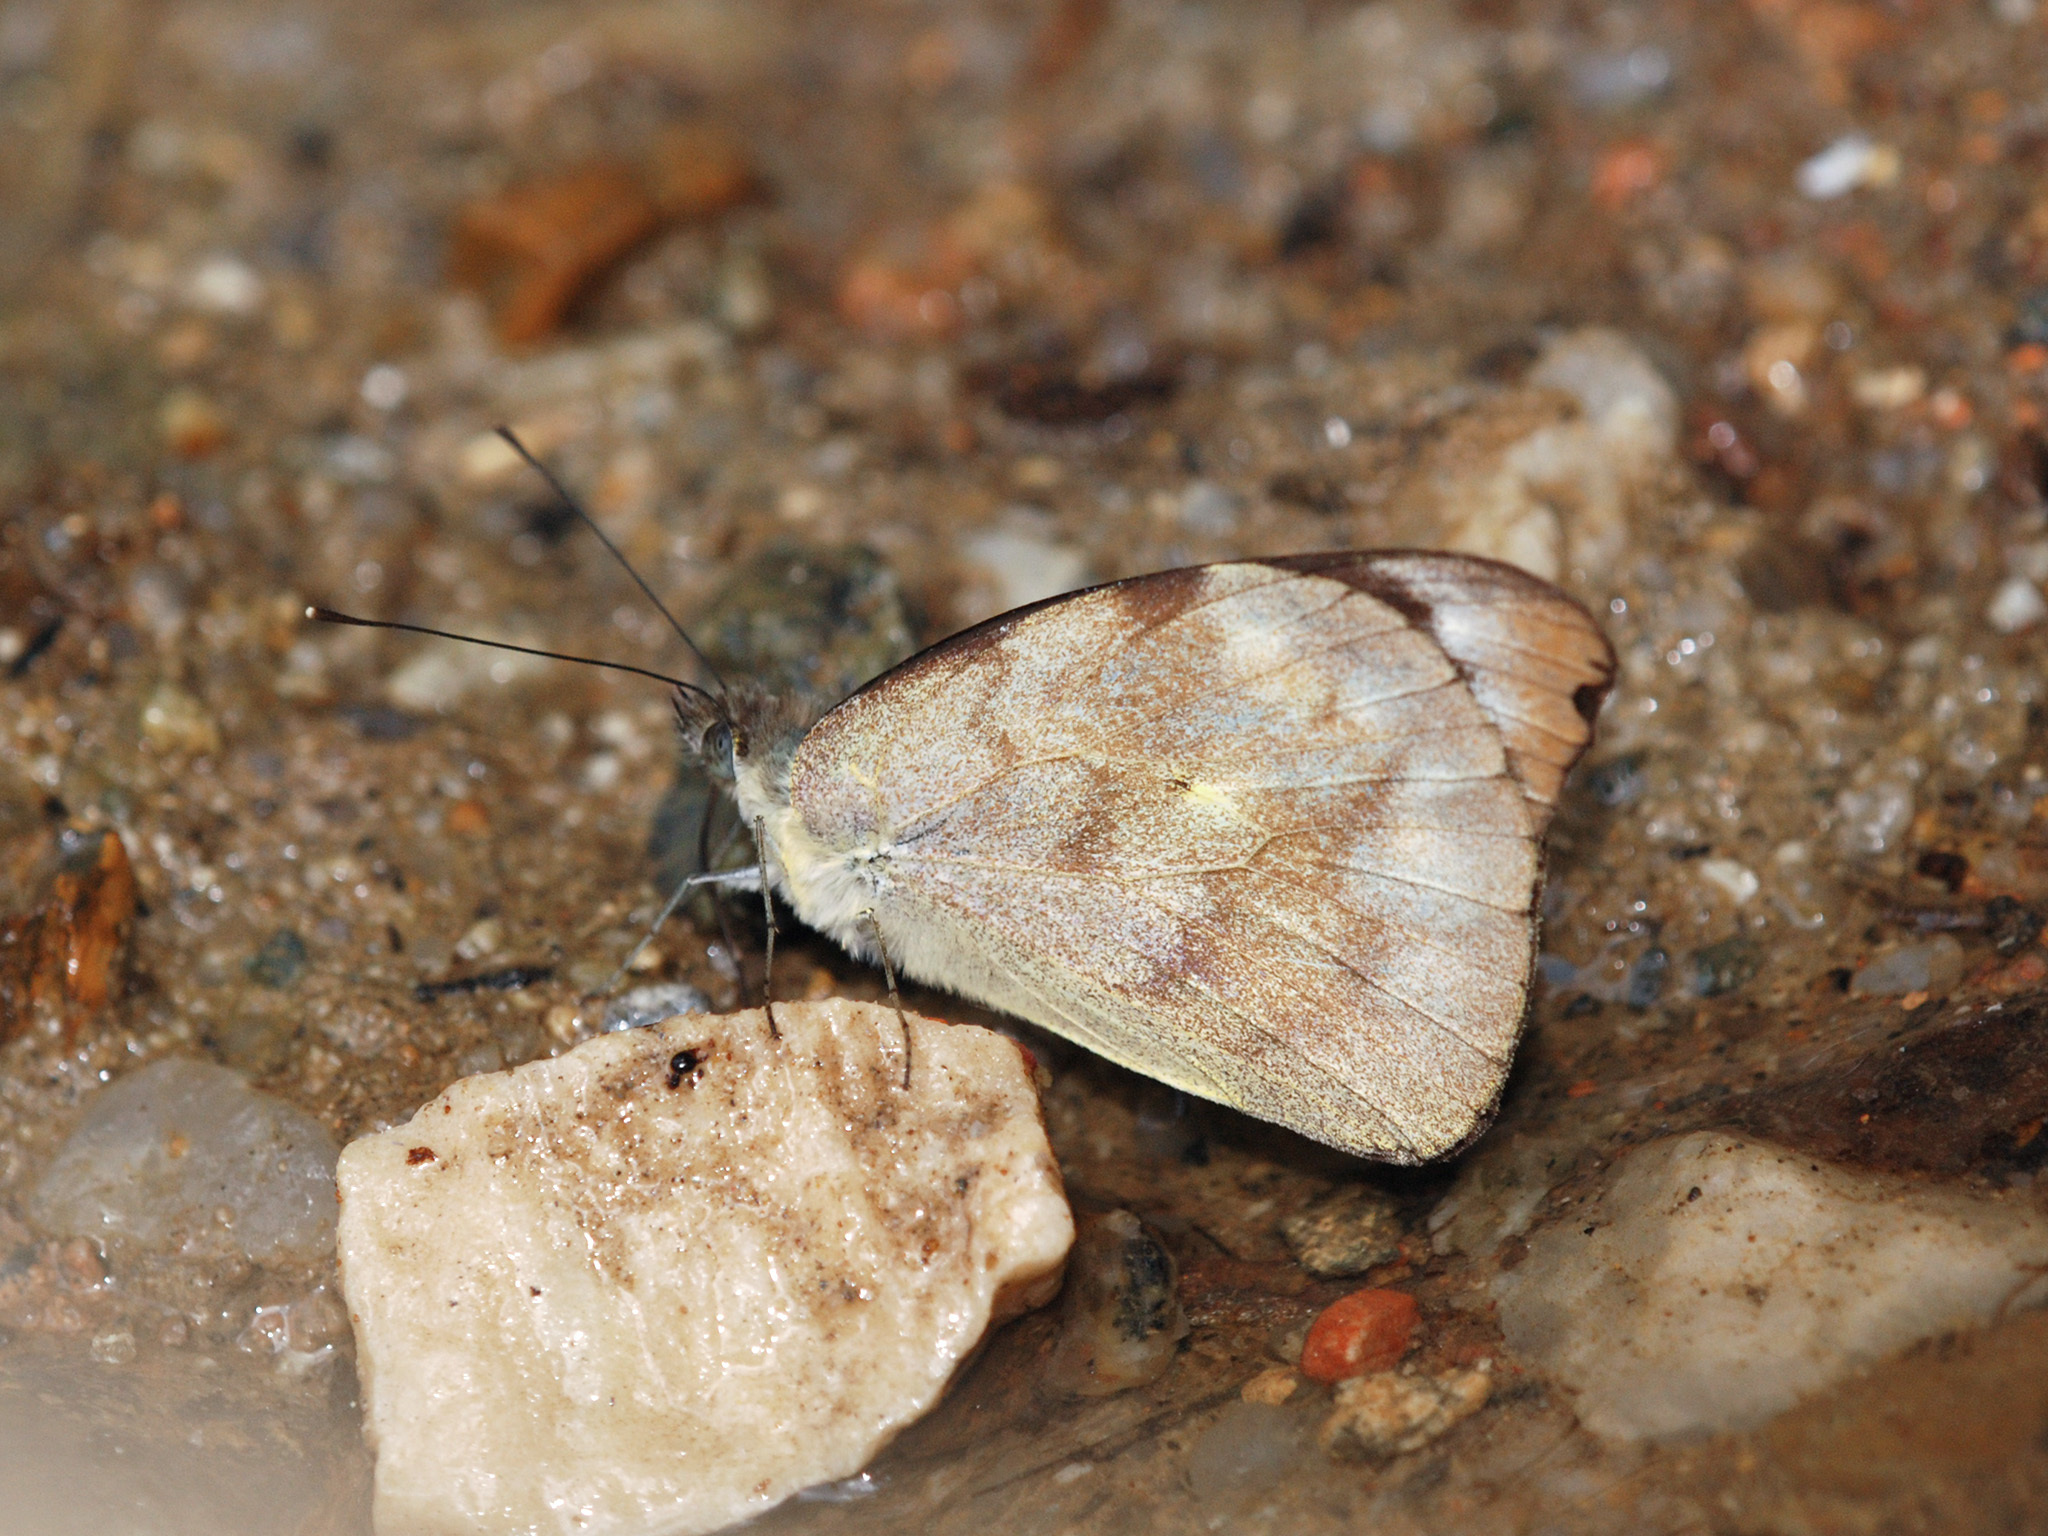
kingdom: Animalia
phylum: Arthropoda
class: Insecta
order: Lepidoptera
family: Pieridae
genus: Appias
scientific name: Appias pandione
